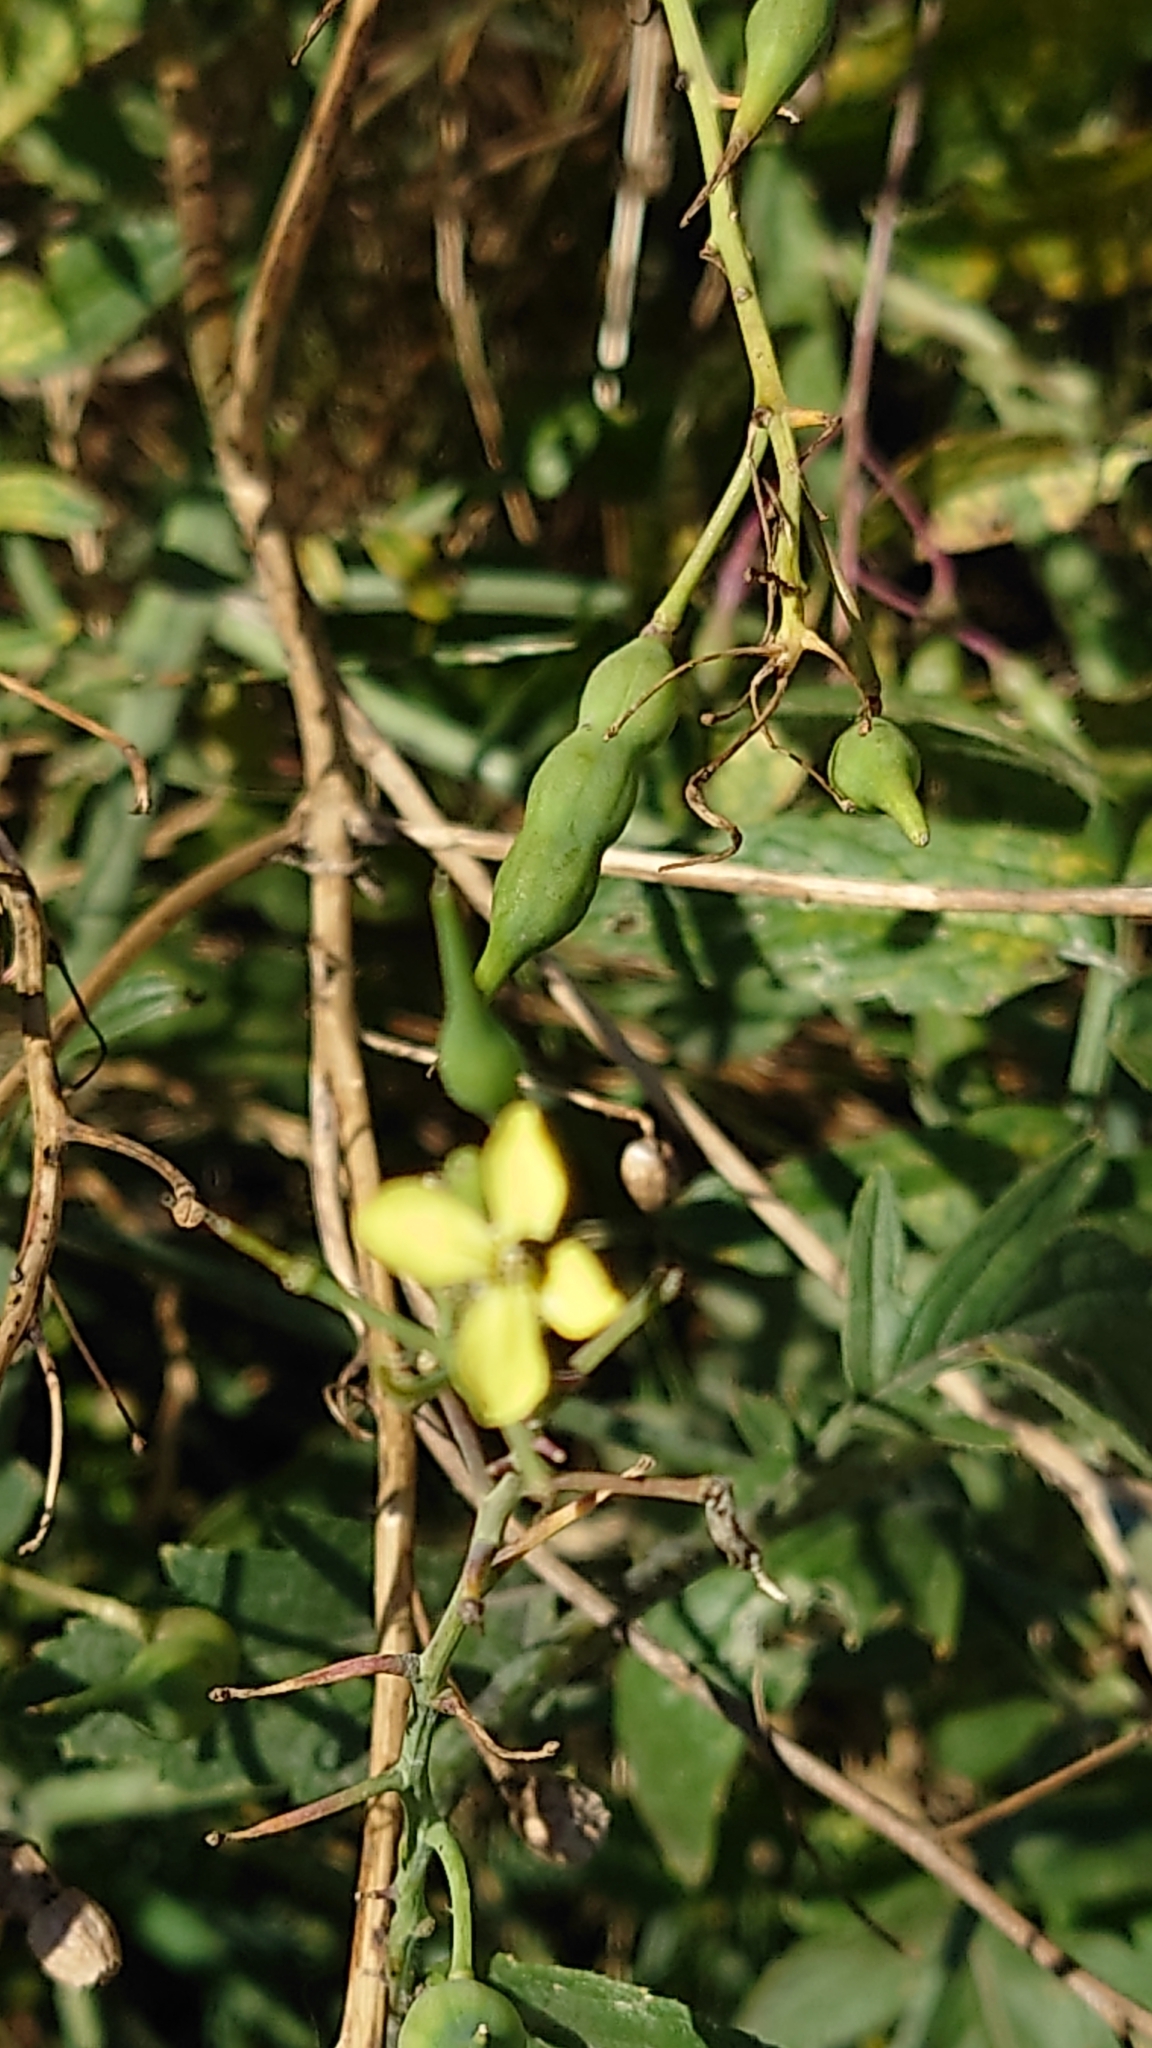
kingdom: Plantae
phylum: Tracheophyta
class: Magnoliopsida
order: Brassicales
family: Brassicaceae
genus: Raphanus
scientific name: Raphanus raphanistrum
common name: Wild radish
